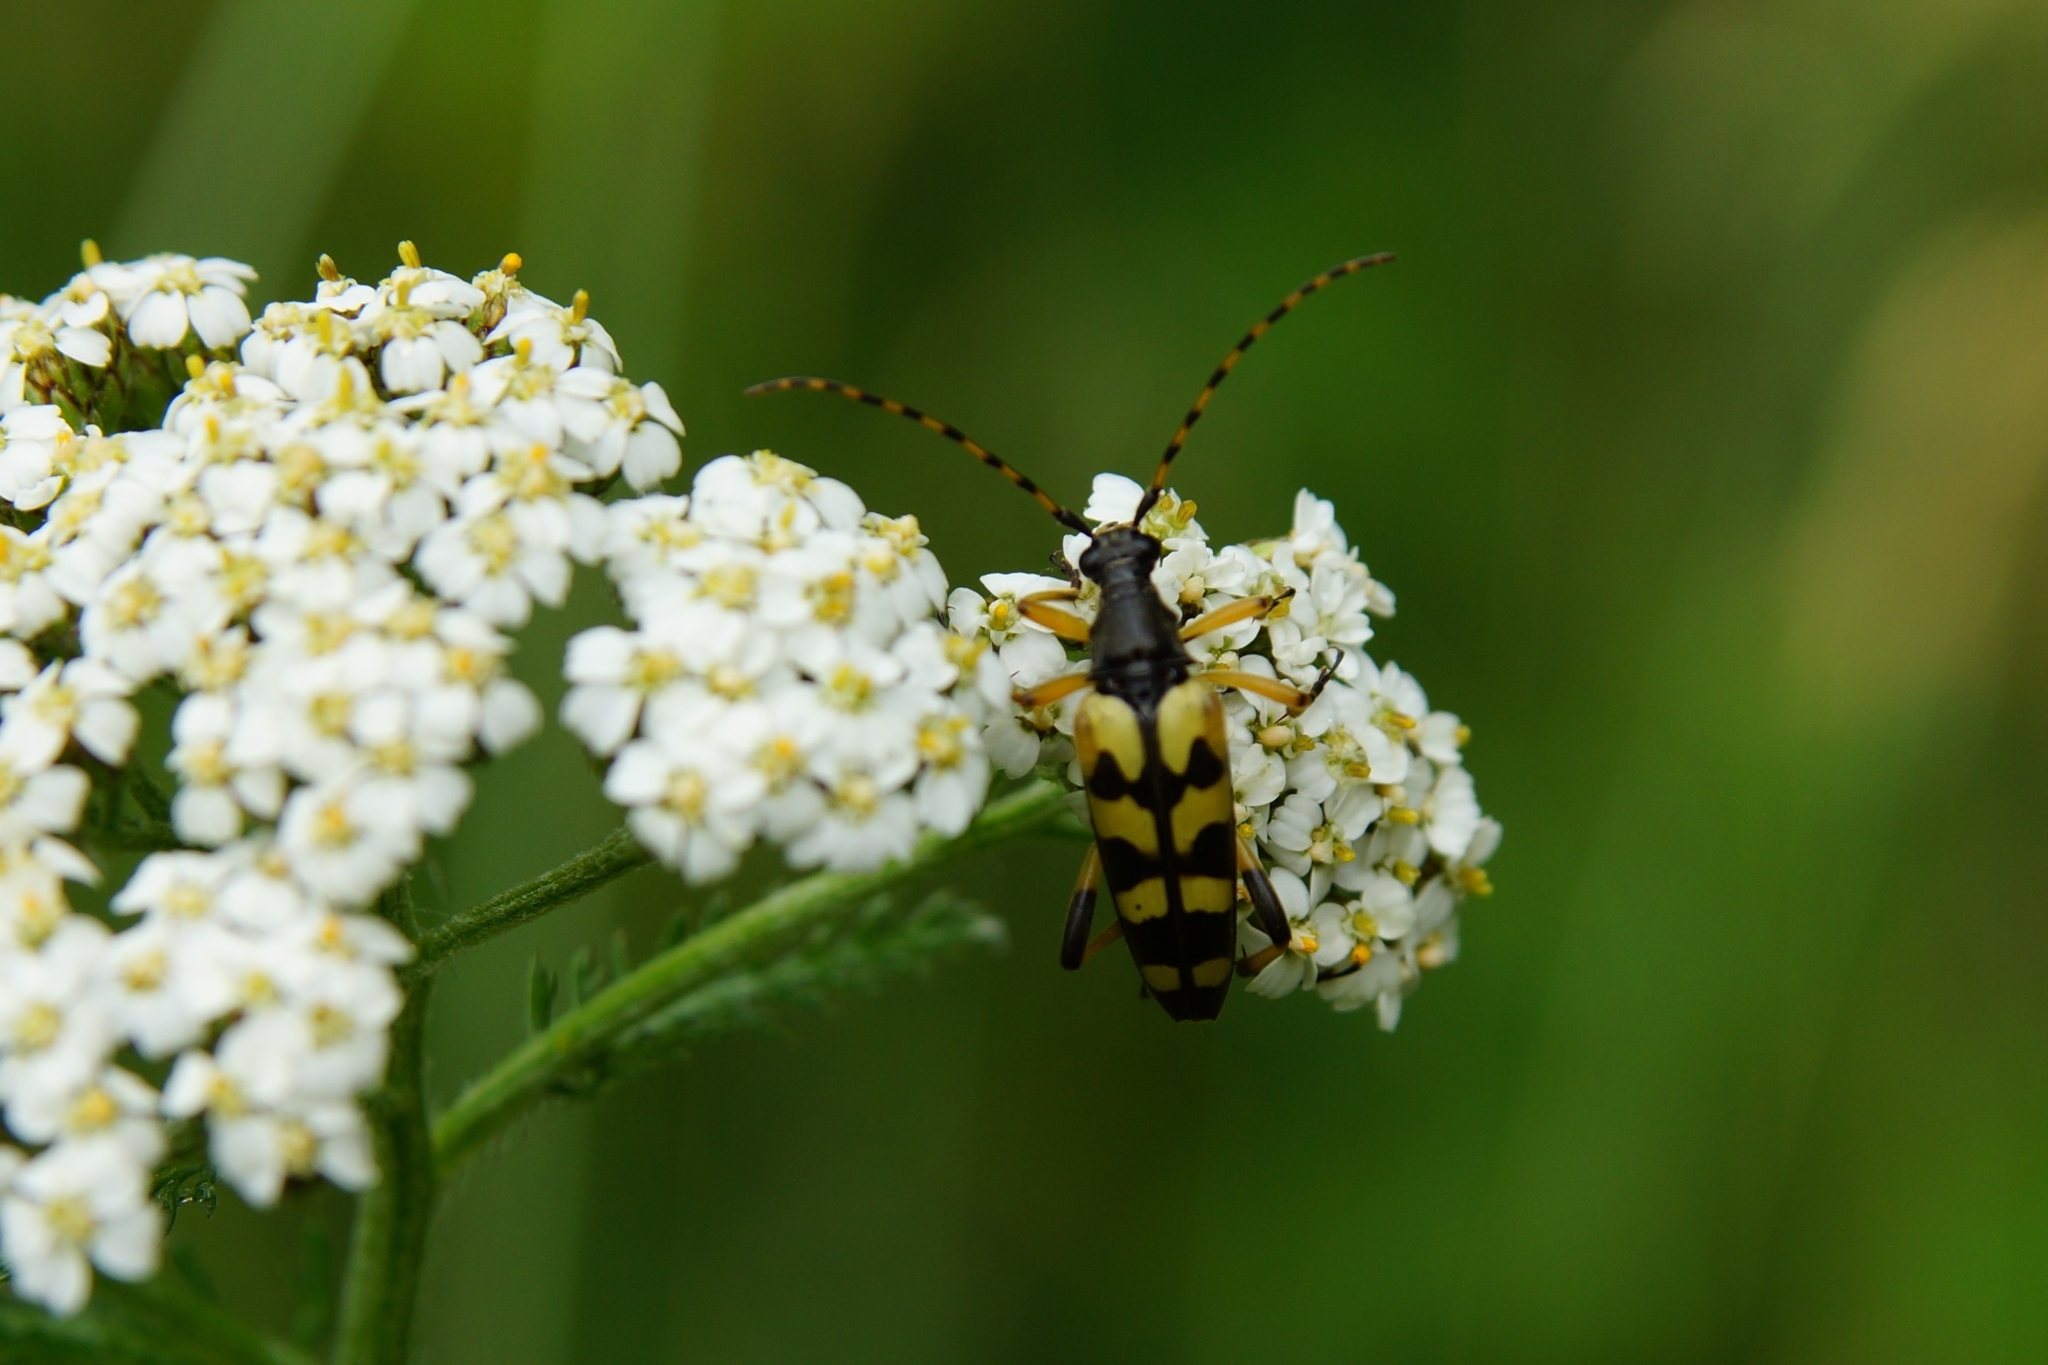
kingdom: Animalia
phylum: Arthropoda
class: Insecta
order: Coleoptera
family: Cerambycidae
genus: Rutpela
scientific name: Rutpela maculata
